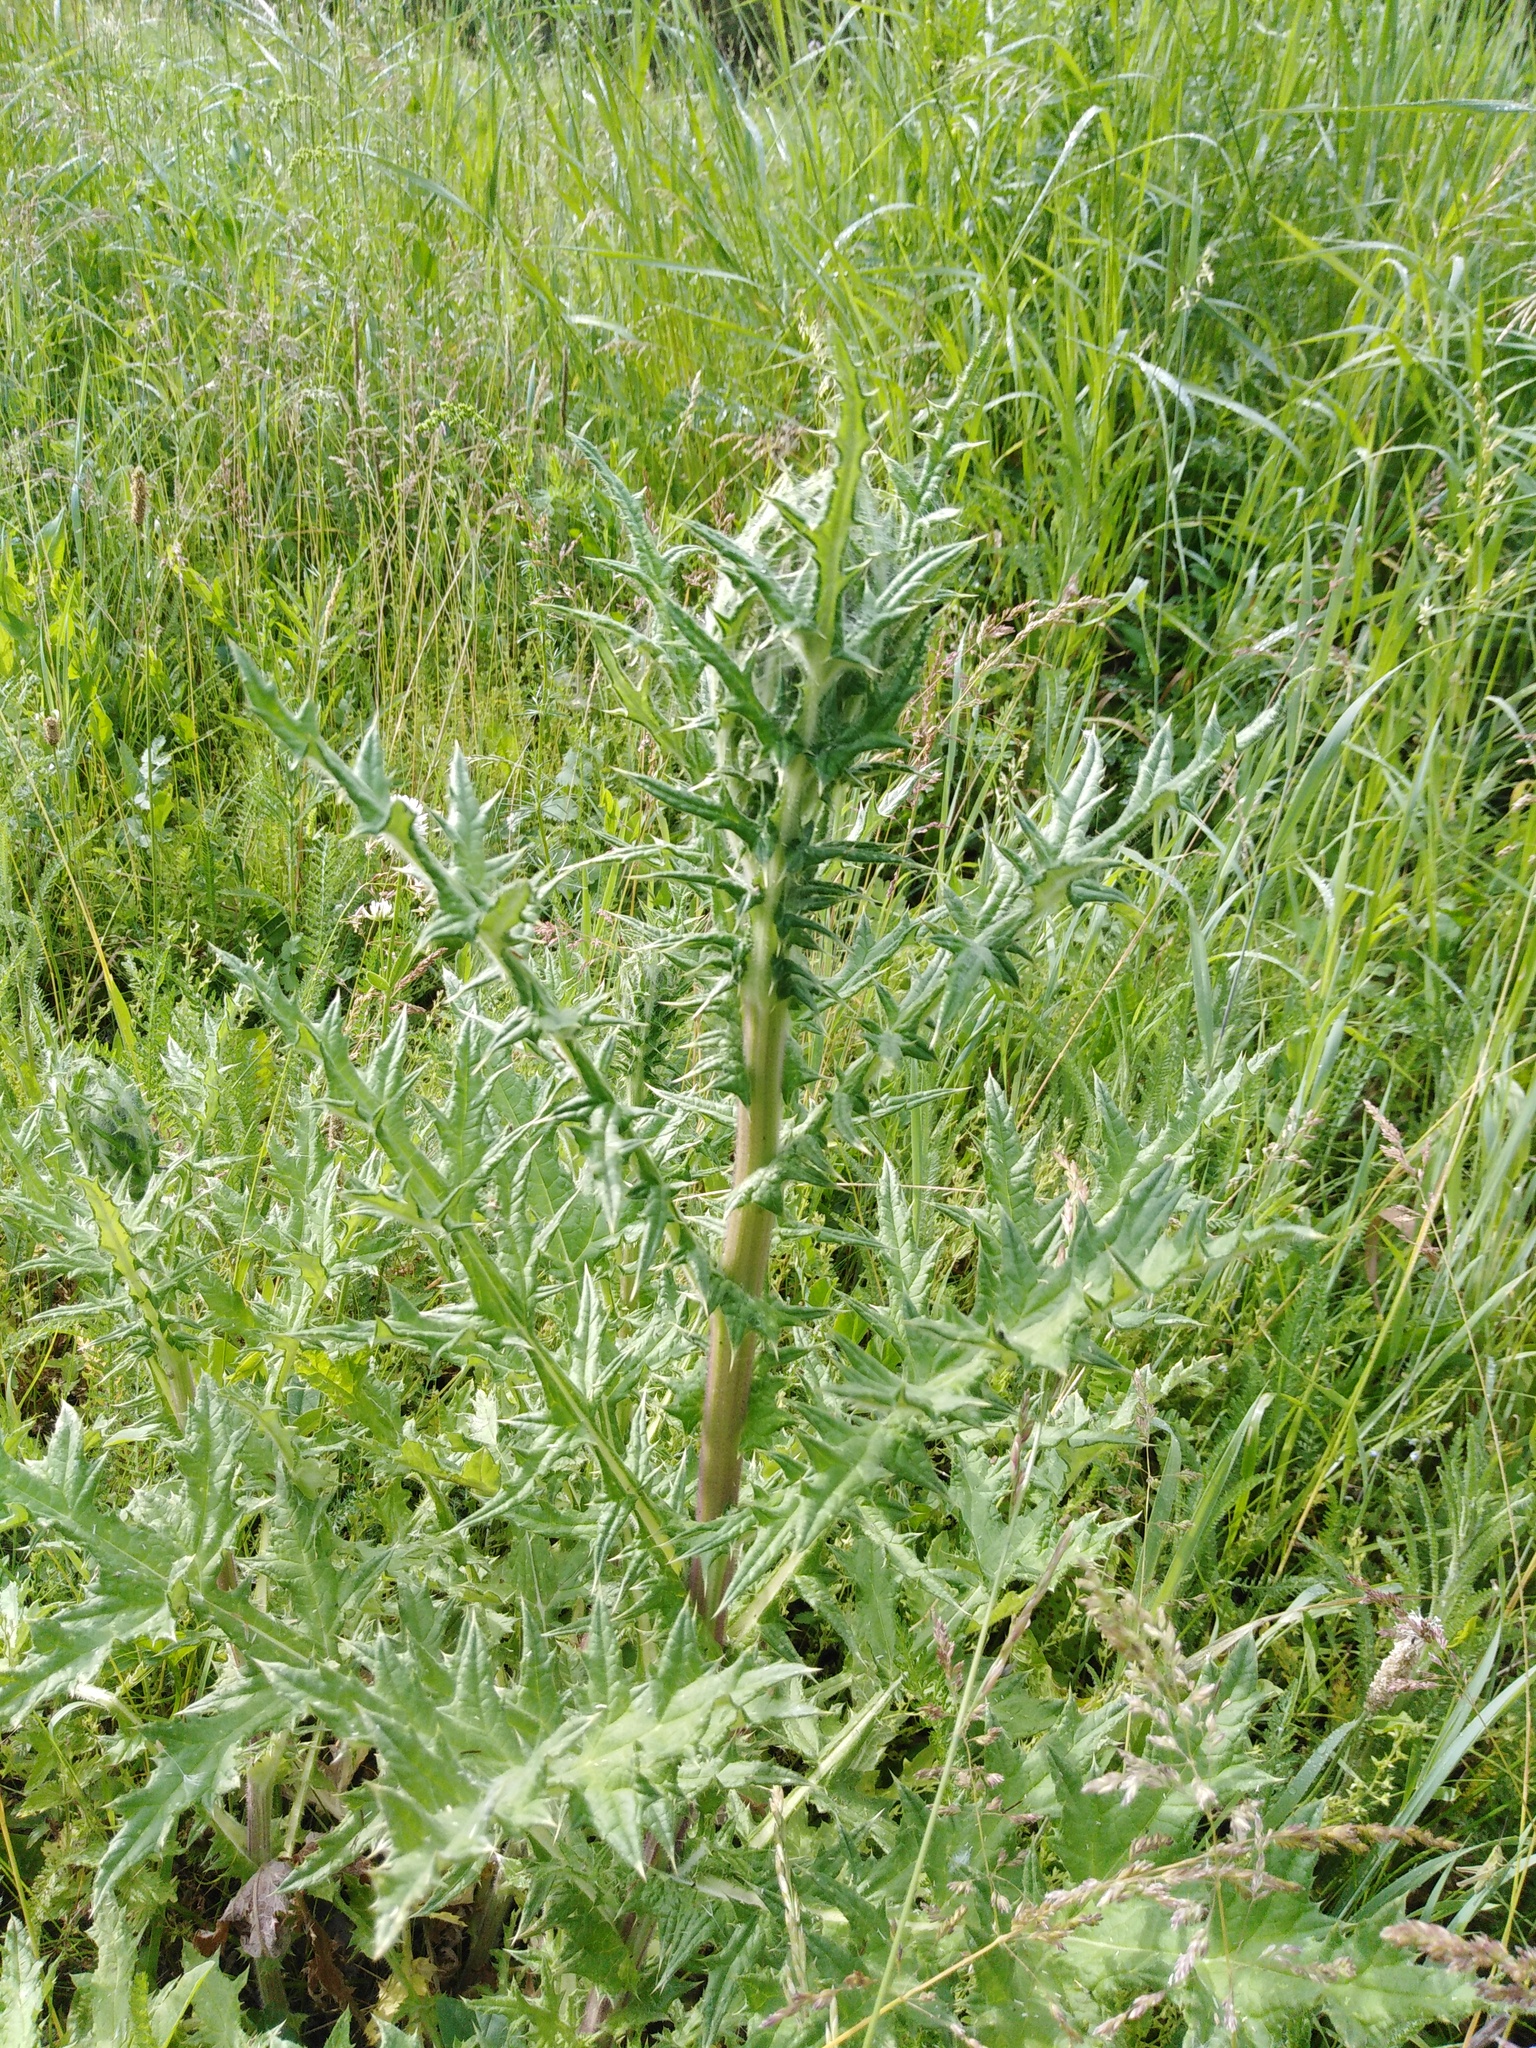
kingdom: Plantae
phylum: Tracheophyta
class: Magnoliopsida
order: Asterales
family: Asteraceae
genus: Echinops
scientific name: Echinops sphaerocephalus
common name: Glandular globe-thistle
